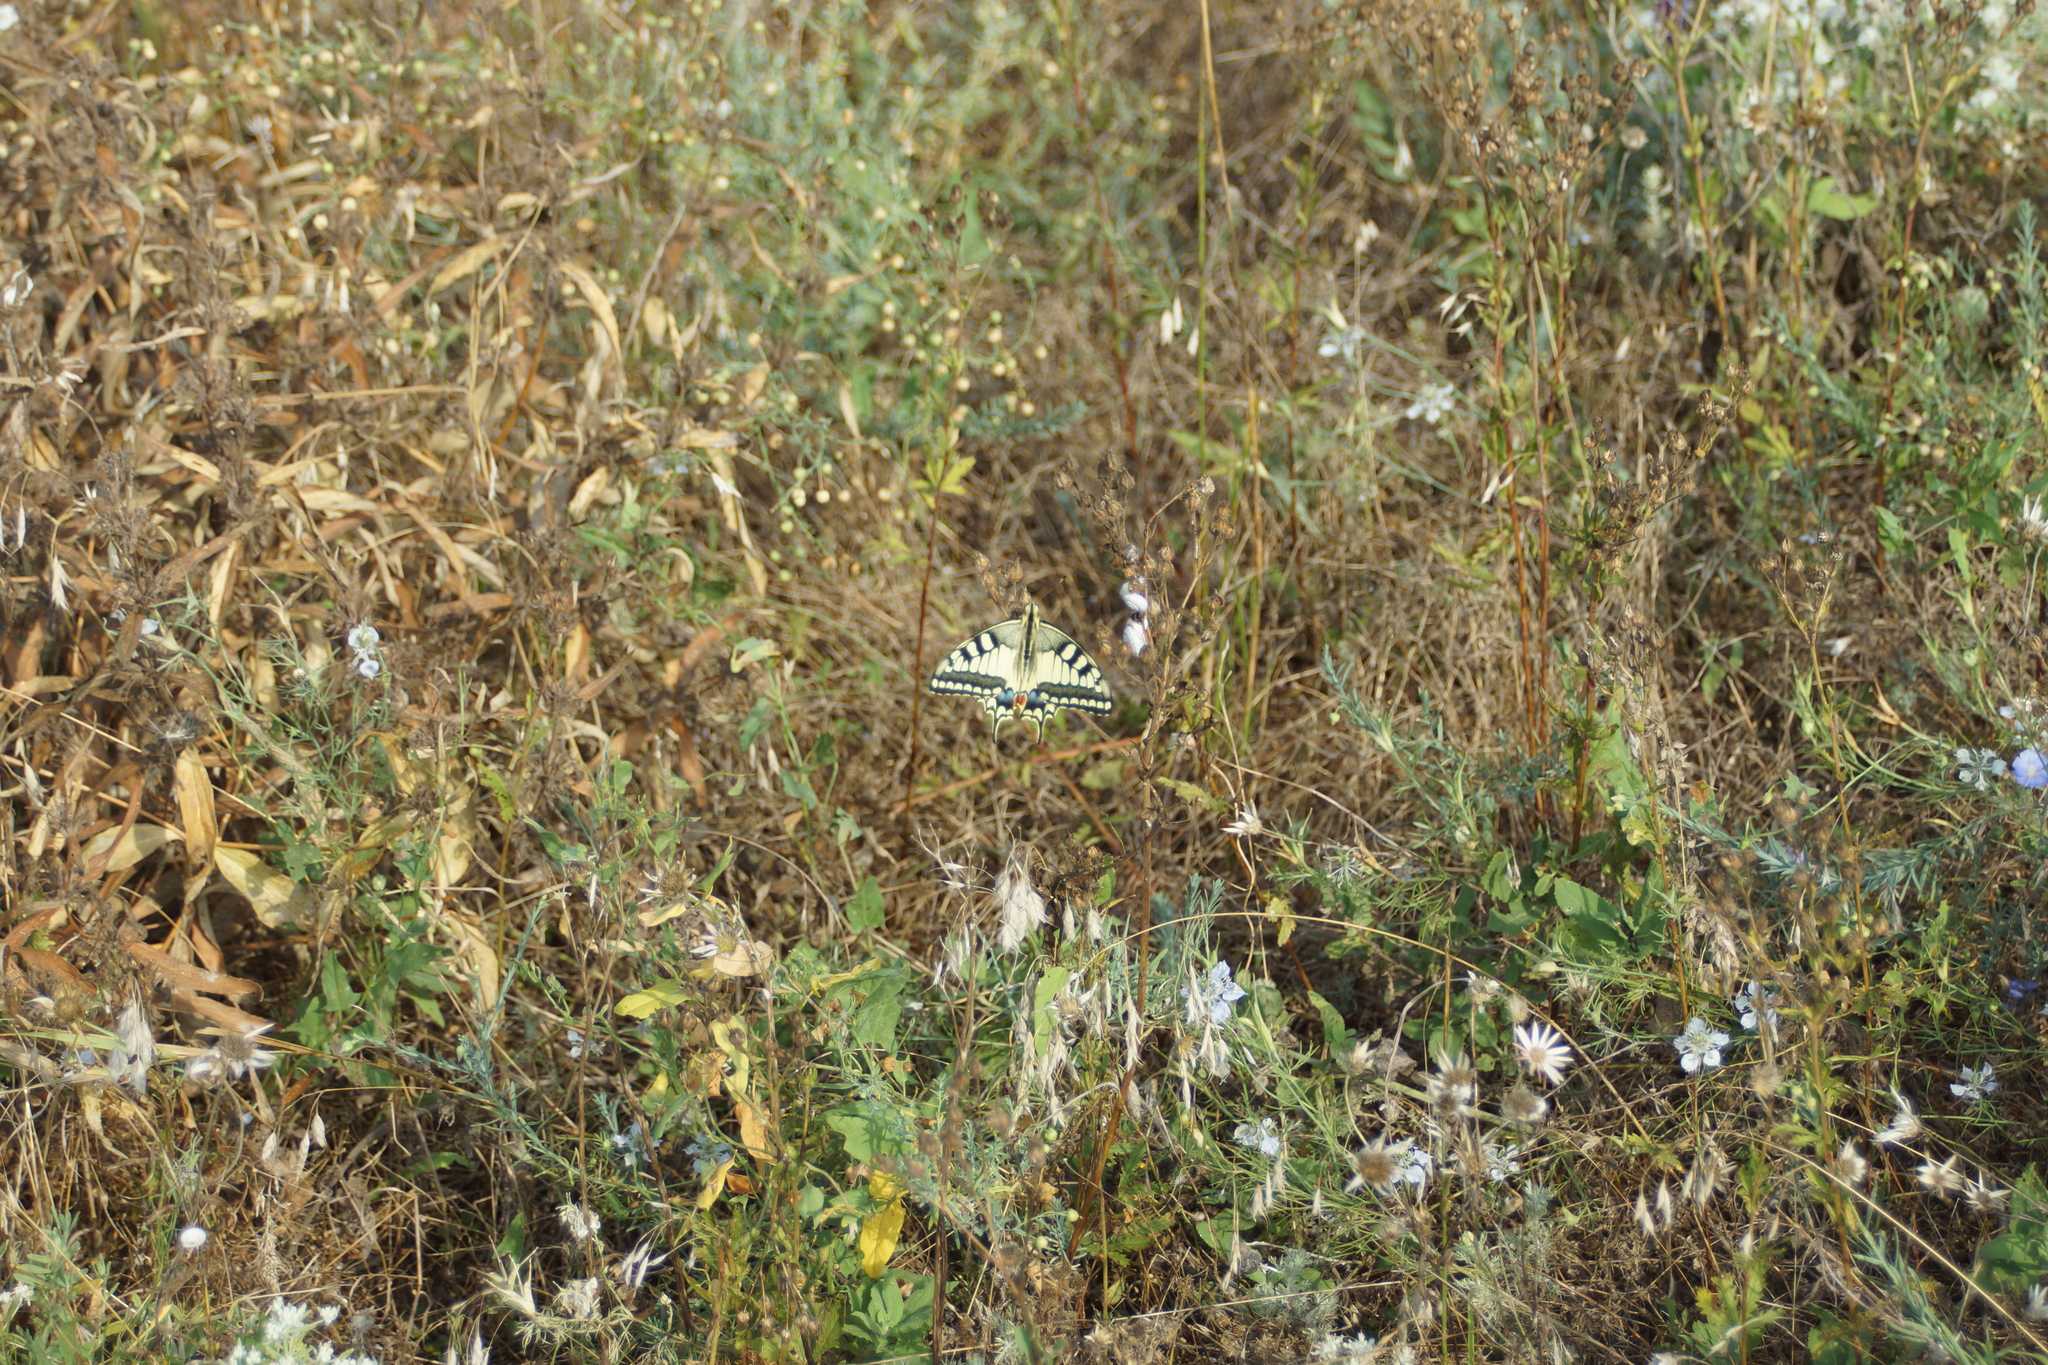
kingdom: Animalia
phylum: Arthropoda
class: Insecta
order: Lepidoptera
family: Papilionidae
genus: Papilio
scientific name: Papilio machaon
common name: Swallowtail
